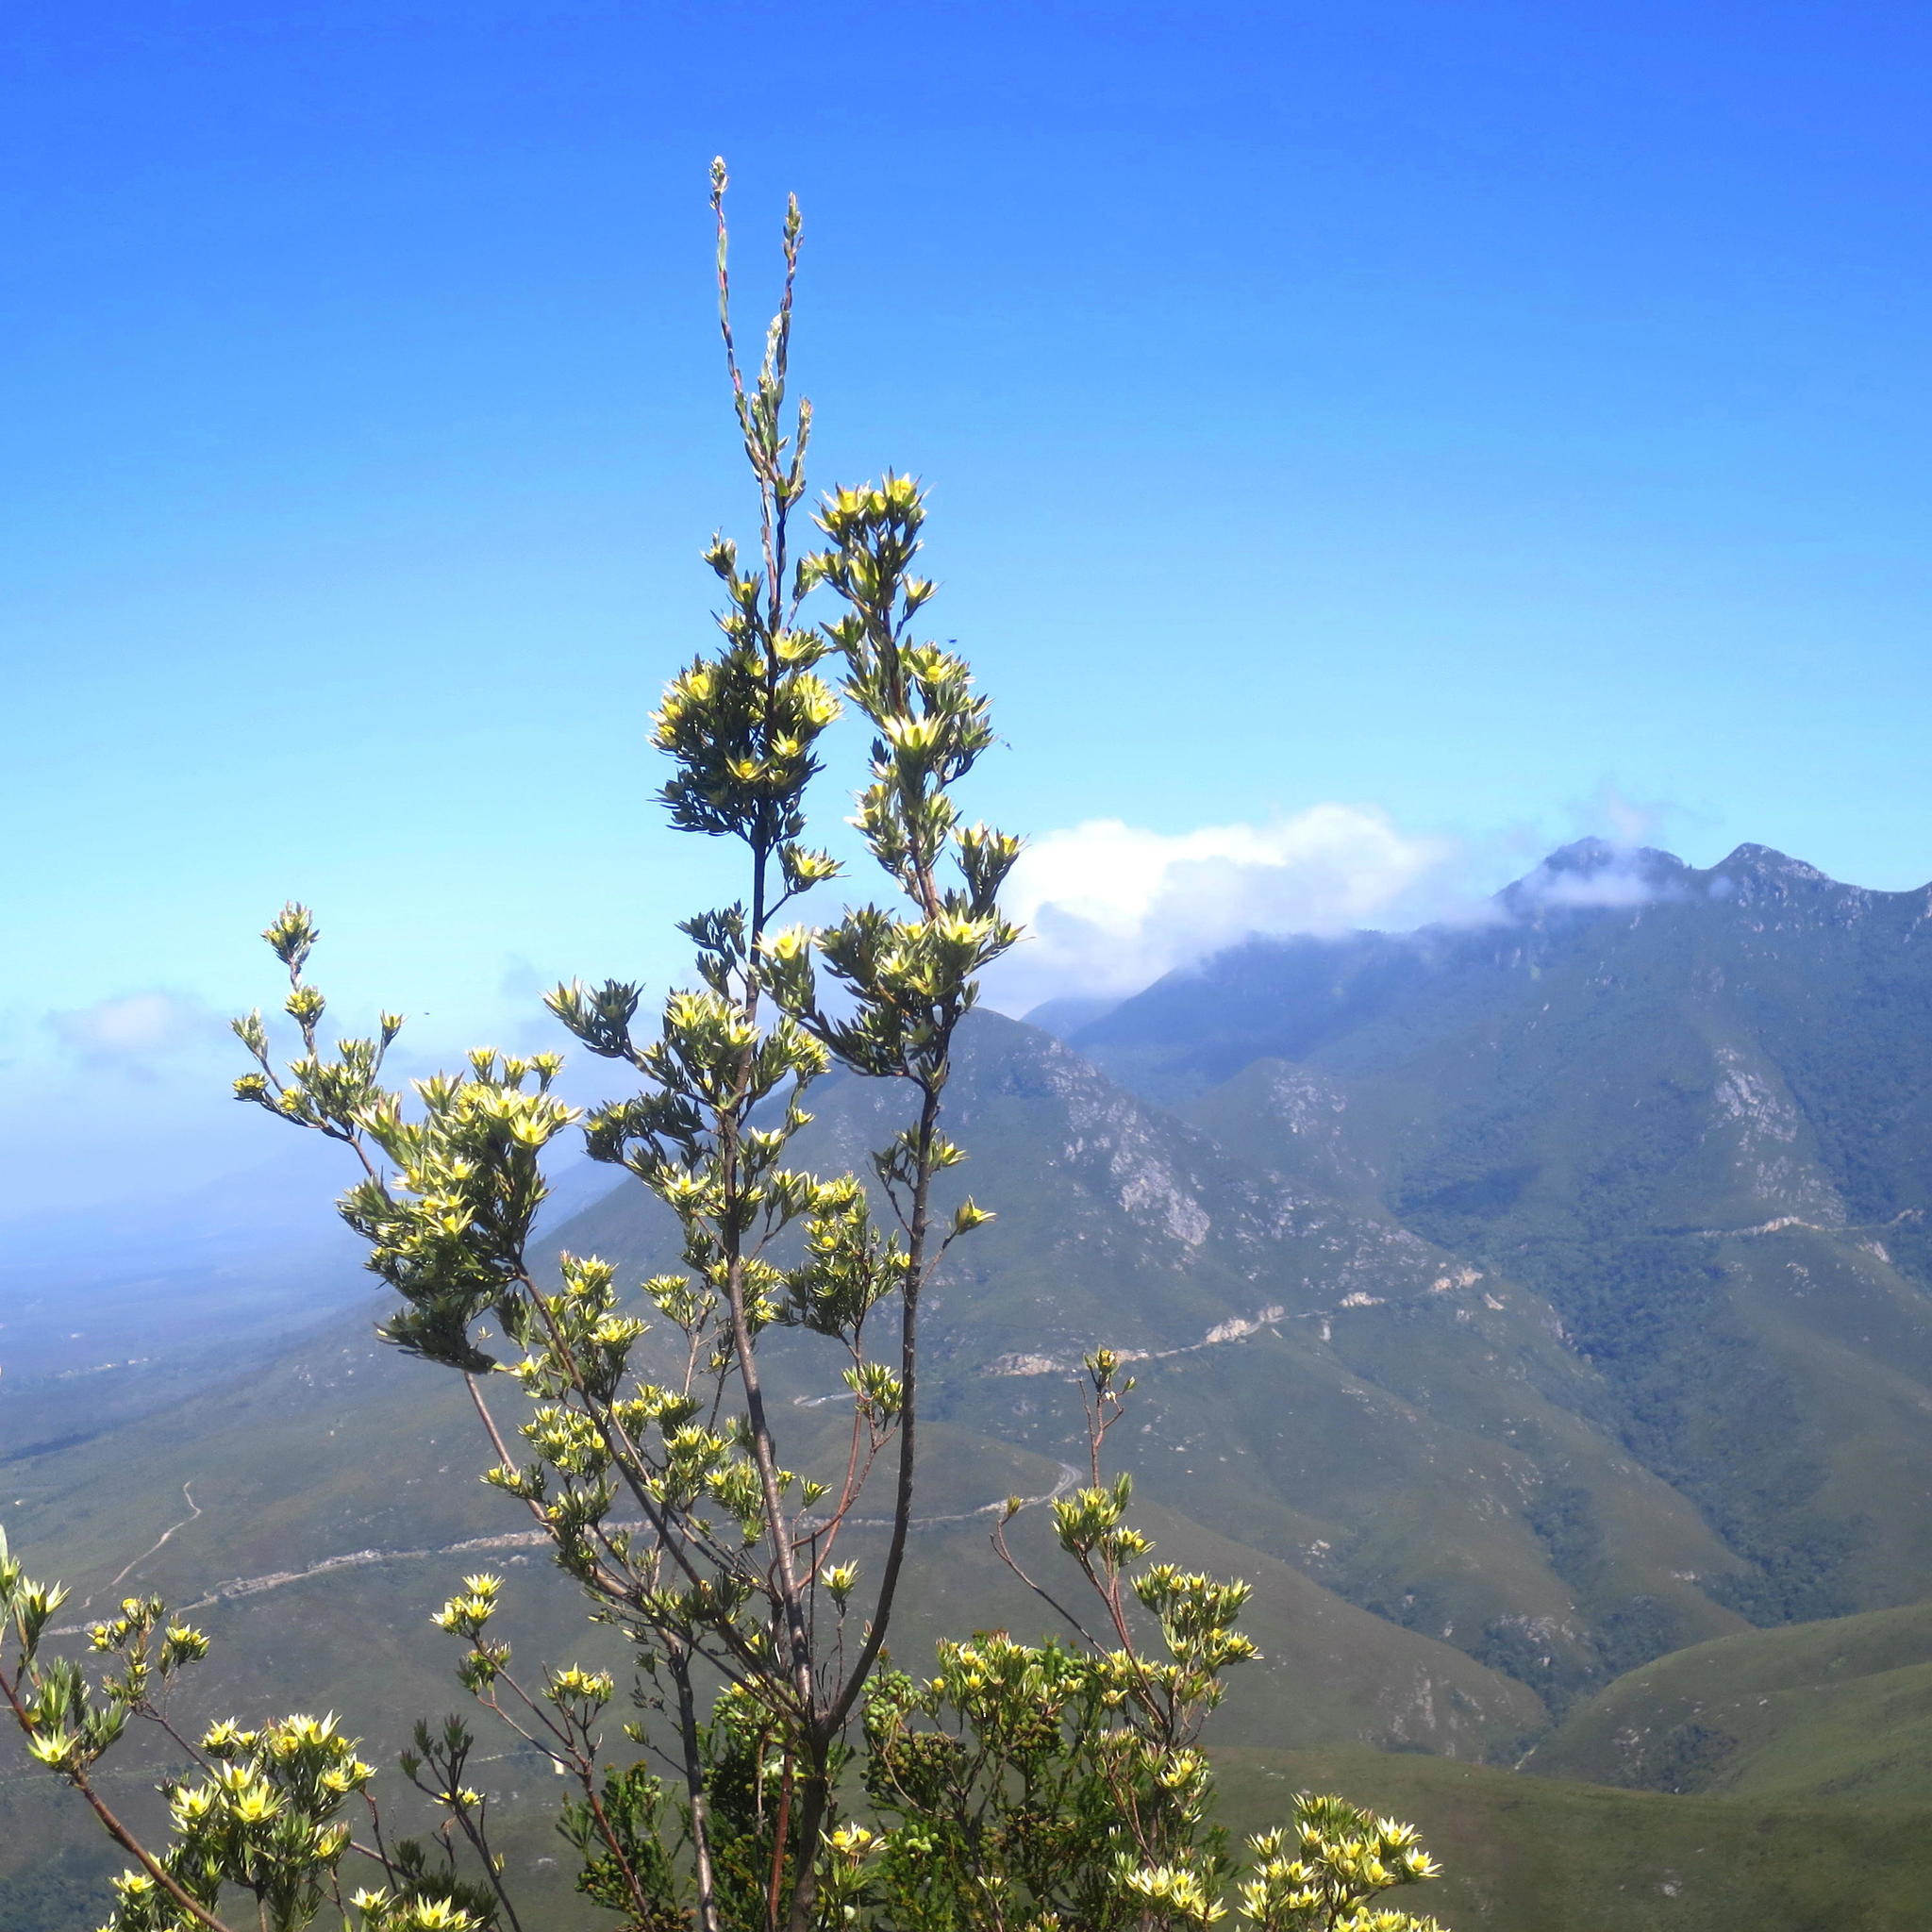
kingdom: Plantae
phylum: Tracheophyta
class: Magnoliopsida
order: Proteales
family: Proteaceae
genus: Leucadendron
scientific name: Leucadendron uliginosum
